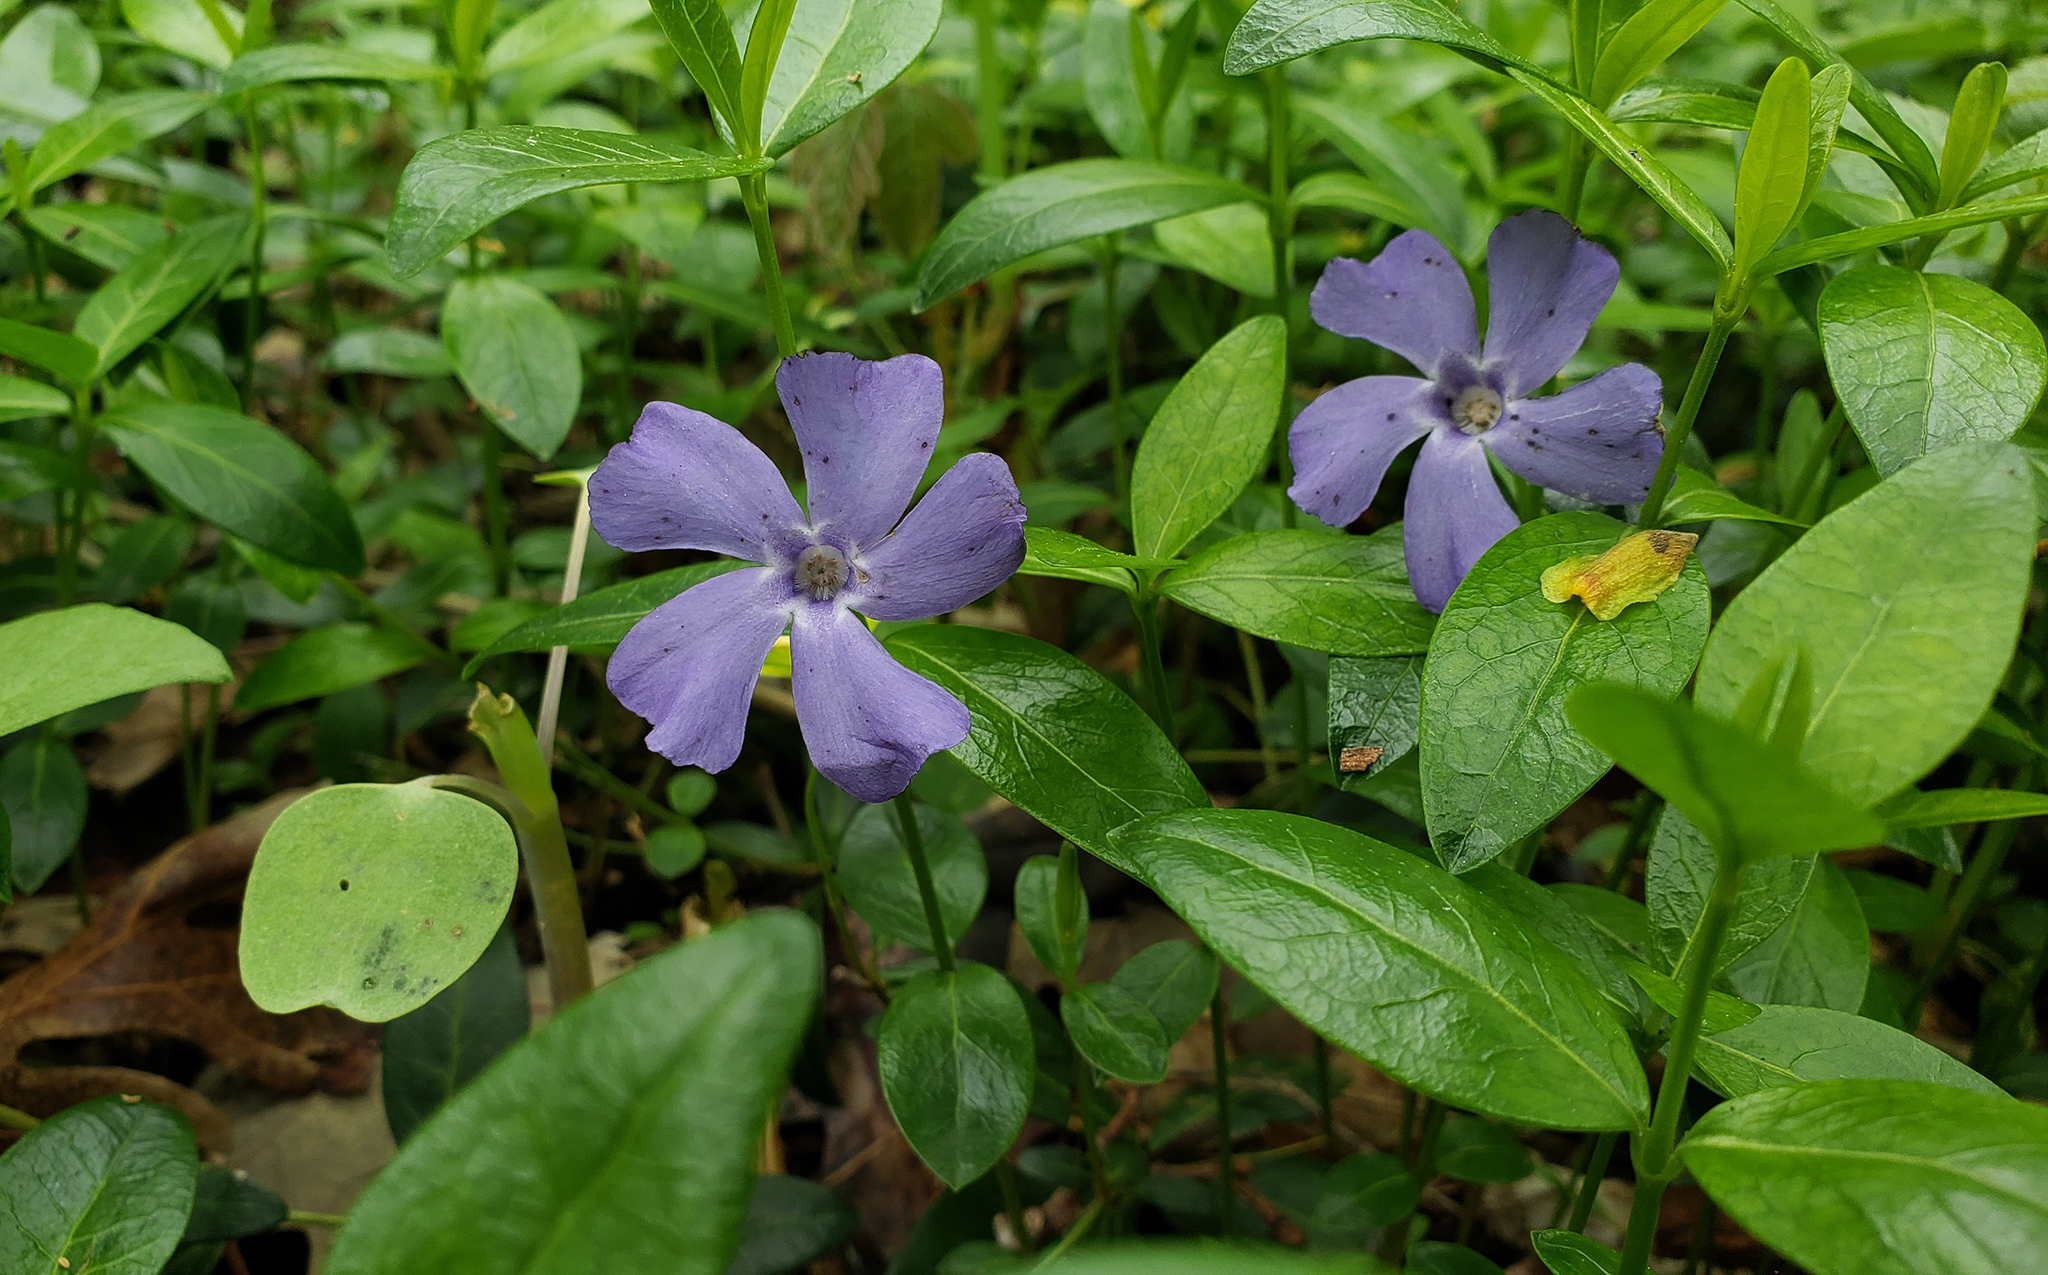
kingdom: Plantae
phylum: Tracheophyta
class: Magnoliopsida
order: Gentianales
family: Apocynaceae
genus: Vinca
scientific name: Vinca minor
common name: Lesser periwinkle
